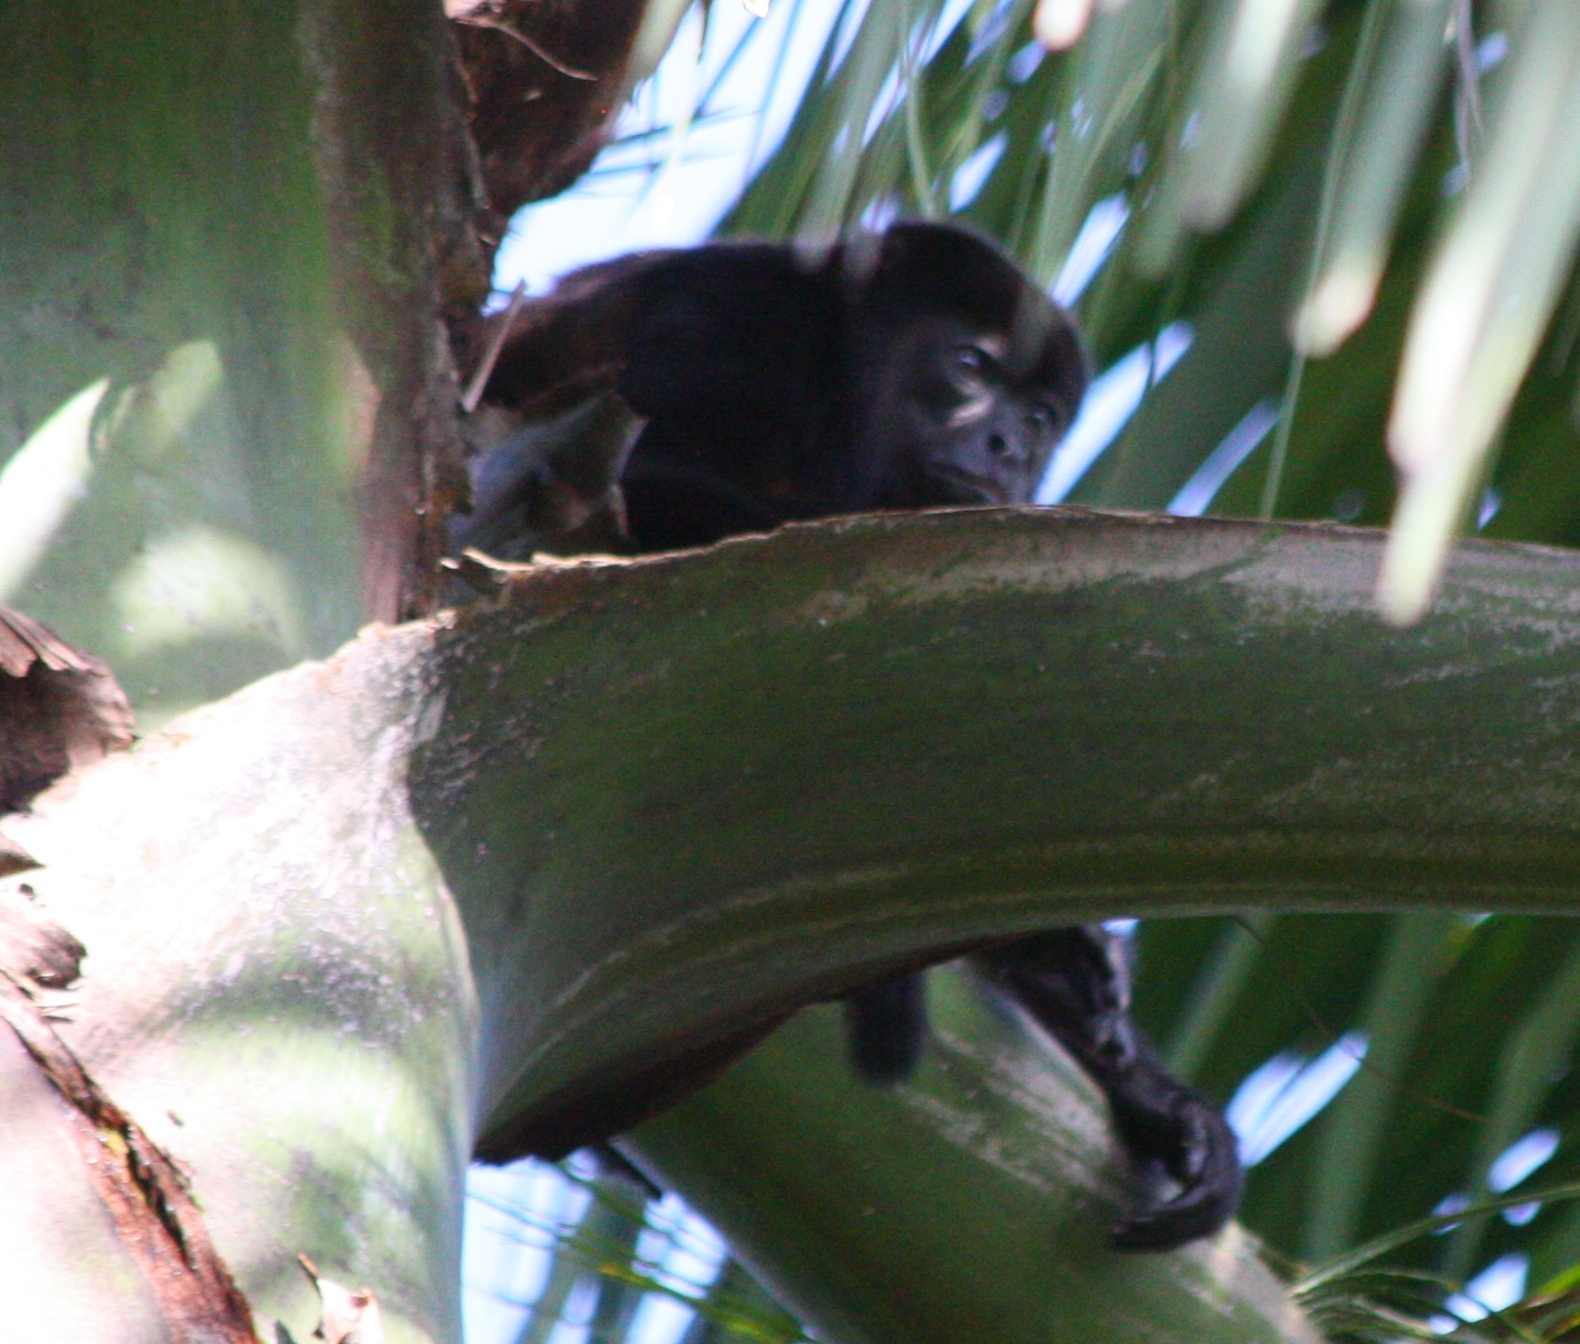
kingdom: Animalia
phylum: Chordata
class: Mammalia
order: Primates
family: Atelidae
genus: Alouatta
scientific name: Alouatta palliata
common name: Mantled howler
